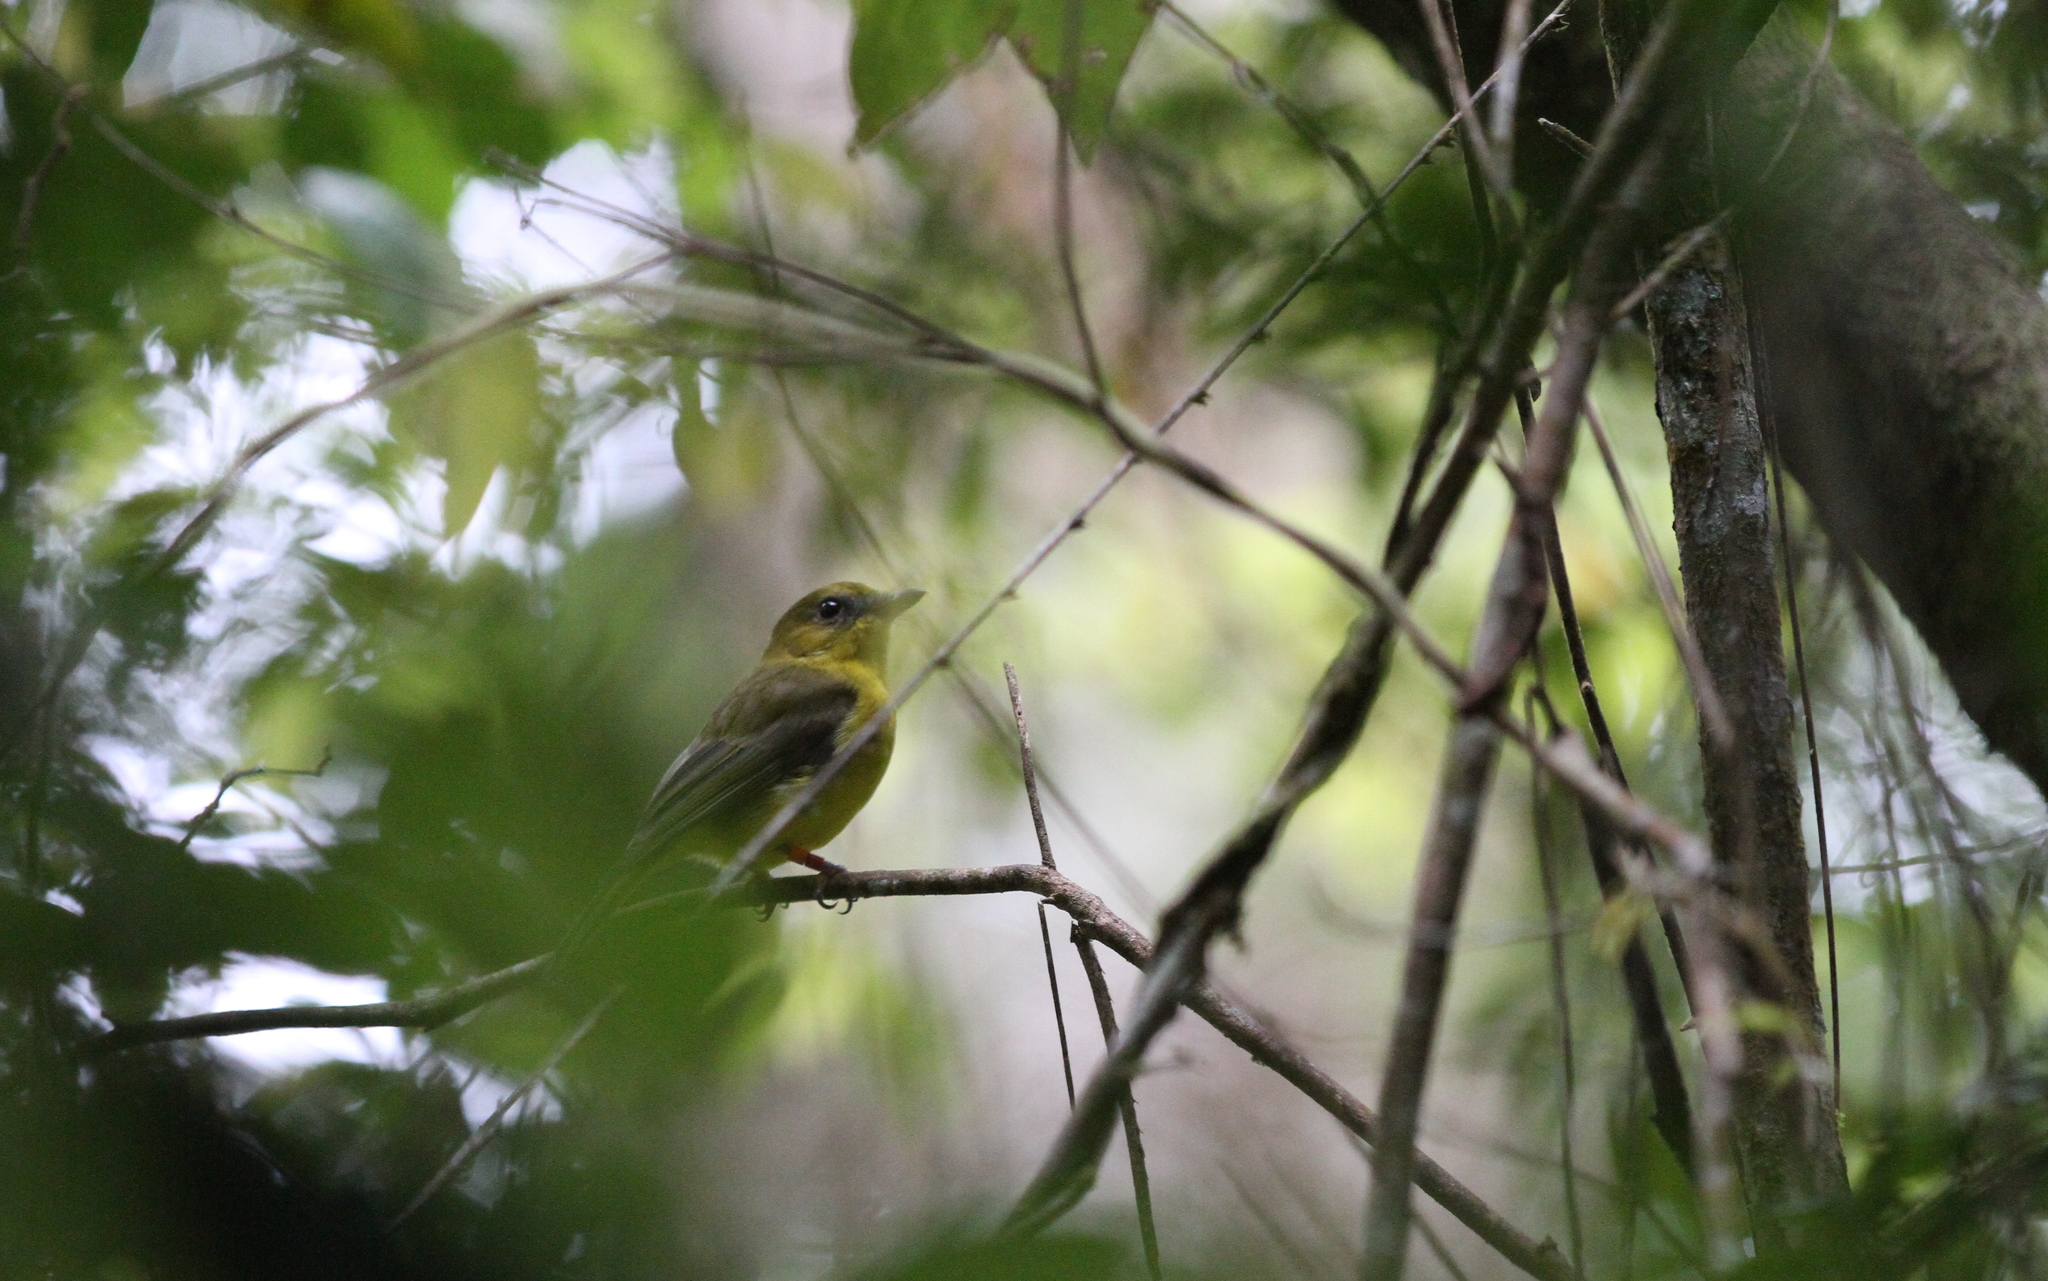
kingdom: Animalia
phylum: Chordata
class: Aves
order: Passeriformes
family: Pachycephalidae
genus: Pachycephala
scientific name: Pachycephala hypoxantha
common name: Bornean whistler
